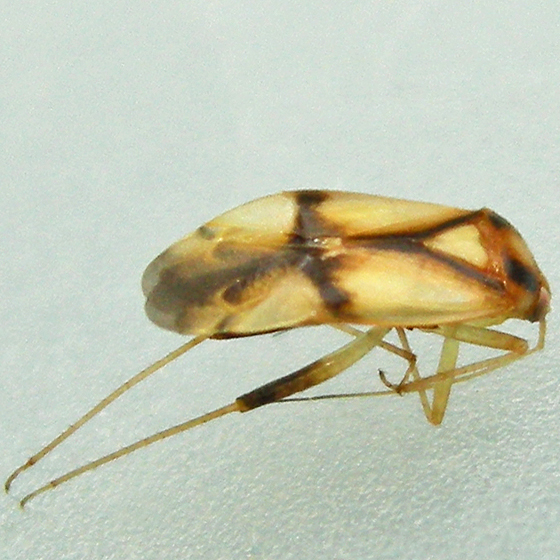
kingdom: Animalia
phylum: Arthropoda
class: Insecta
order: Hemiptera
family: Miridae
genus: Neolygus
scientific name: Neolygus vitticollis
